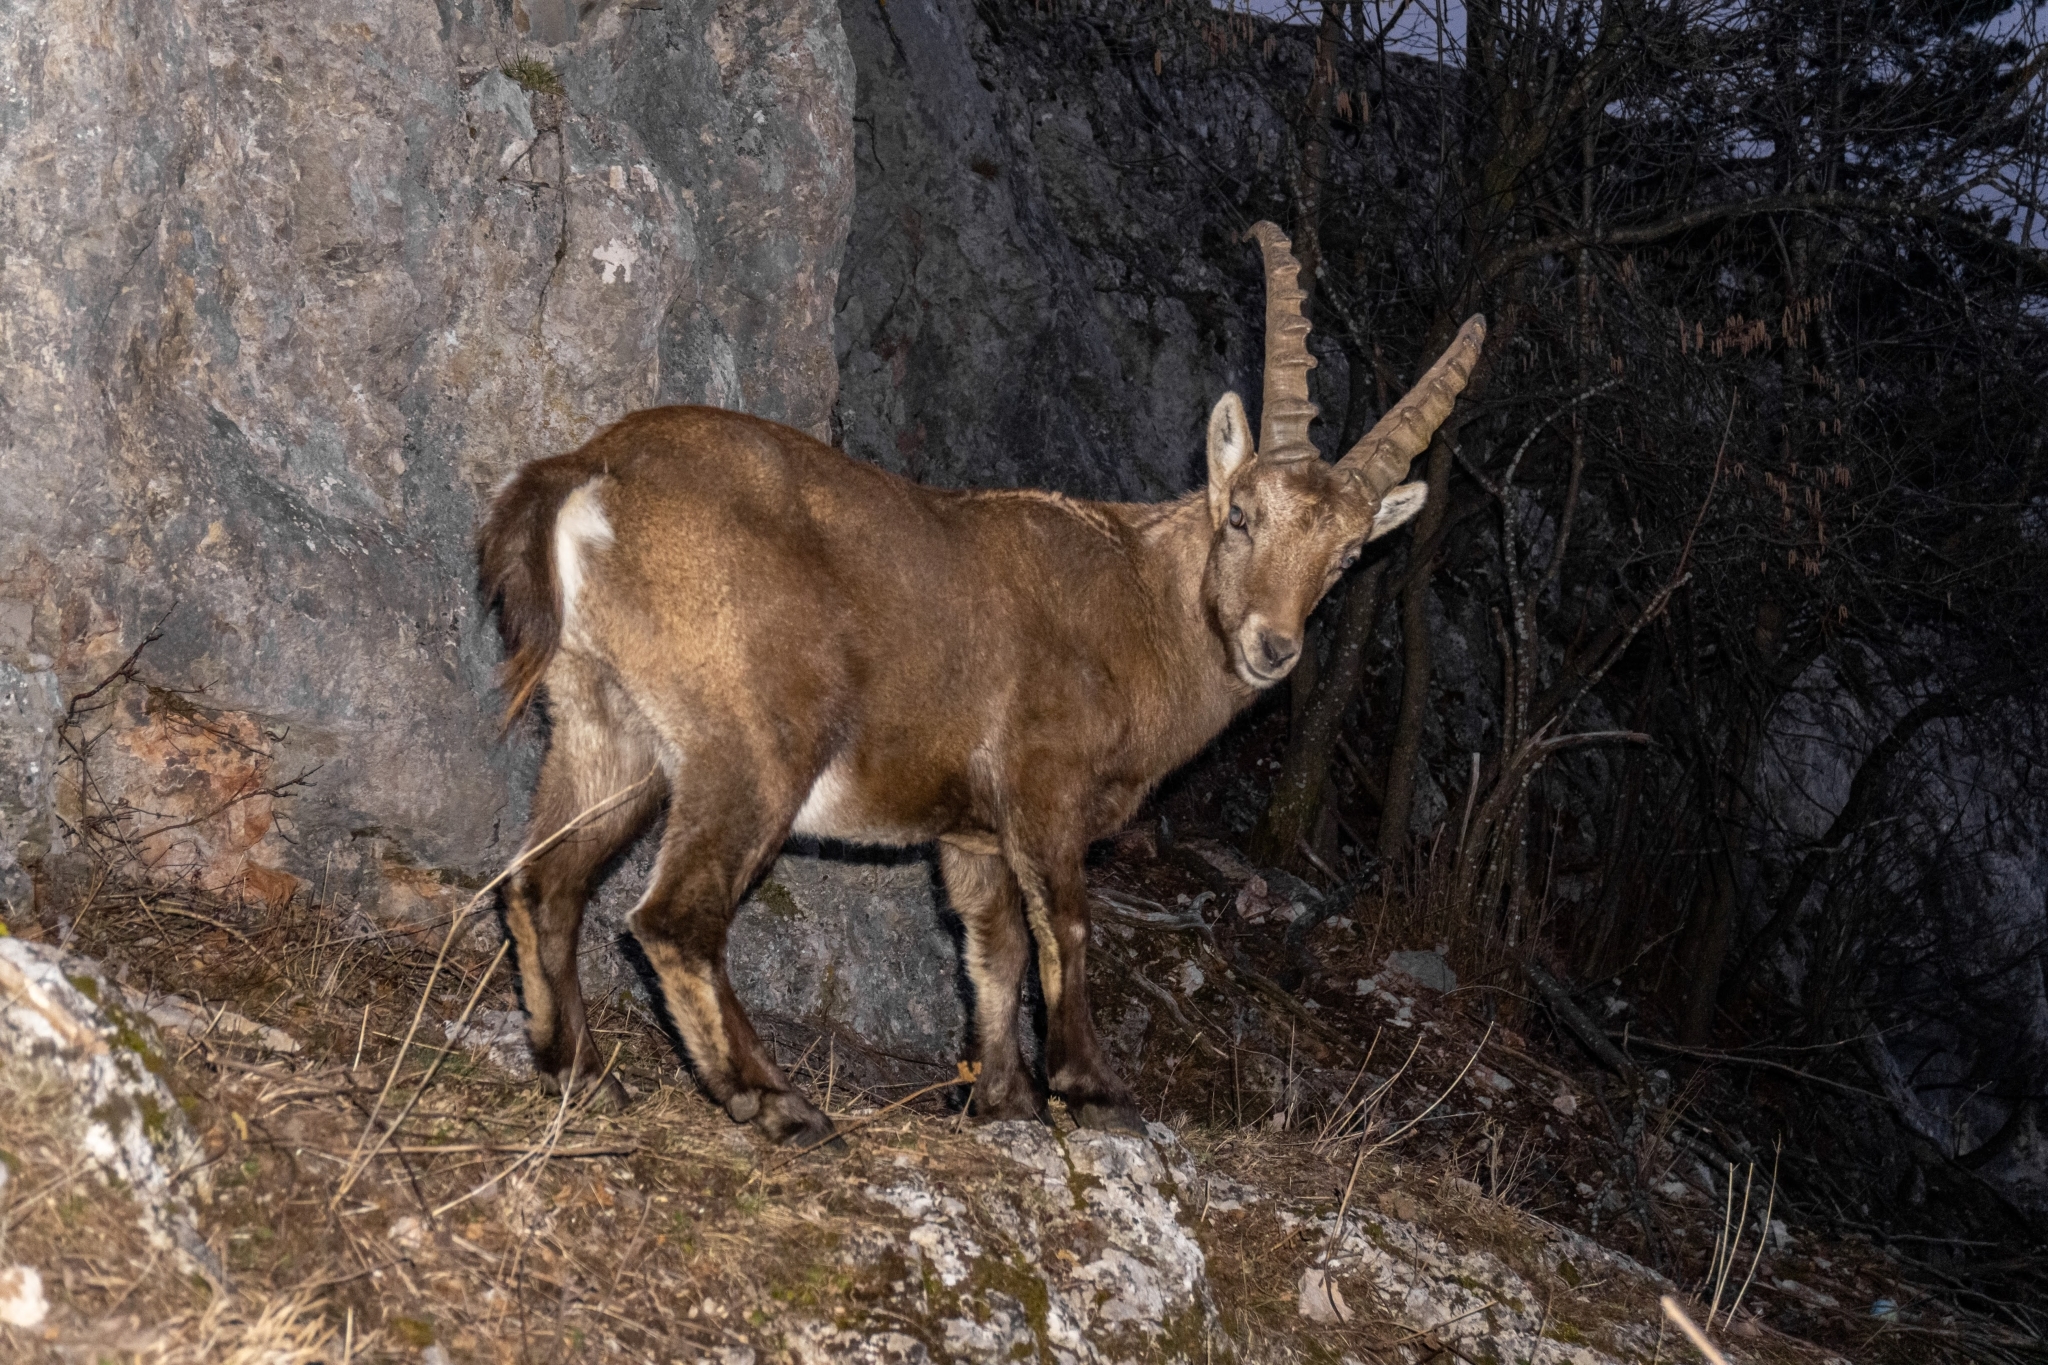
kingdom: Animalia
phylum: Chordata
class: Mammalia
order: Artiodactyla
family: Bovidae
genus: Capra
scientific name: Capra ibex
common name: Alpine ibex
